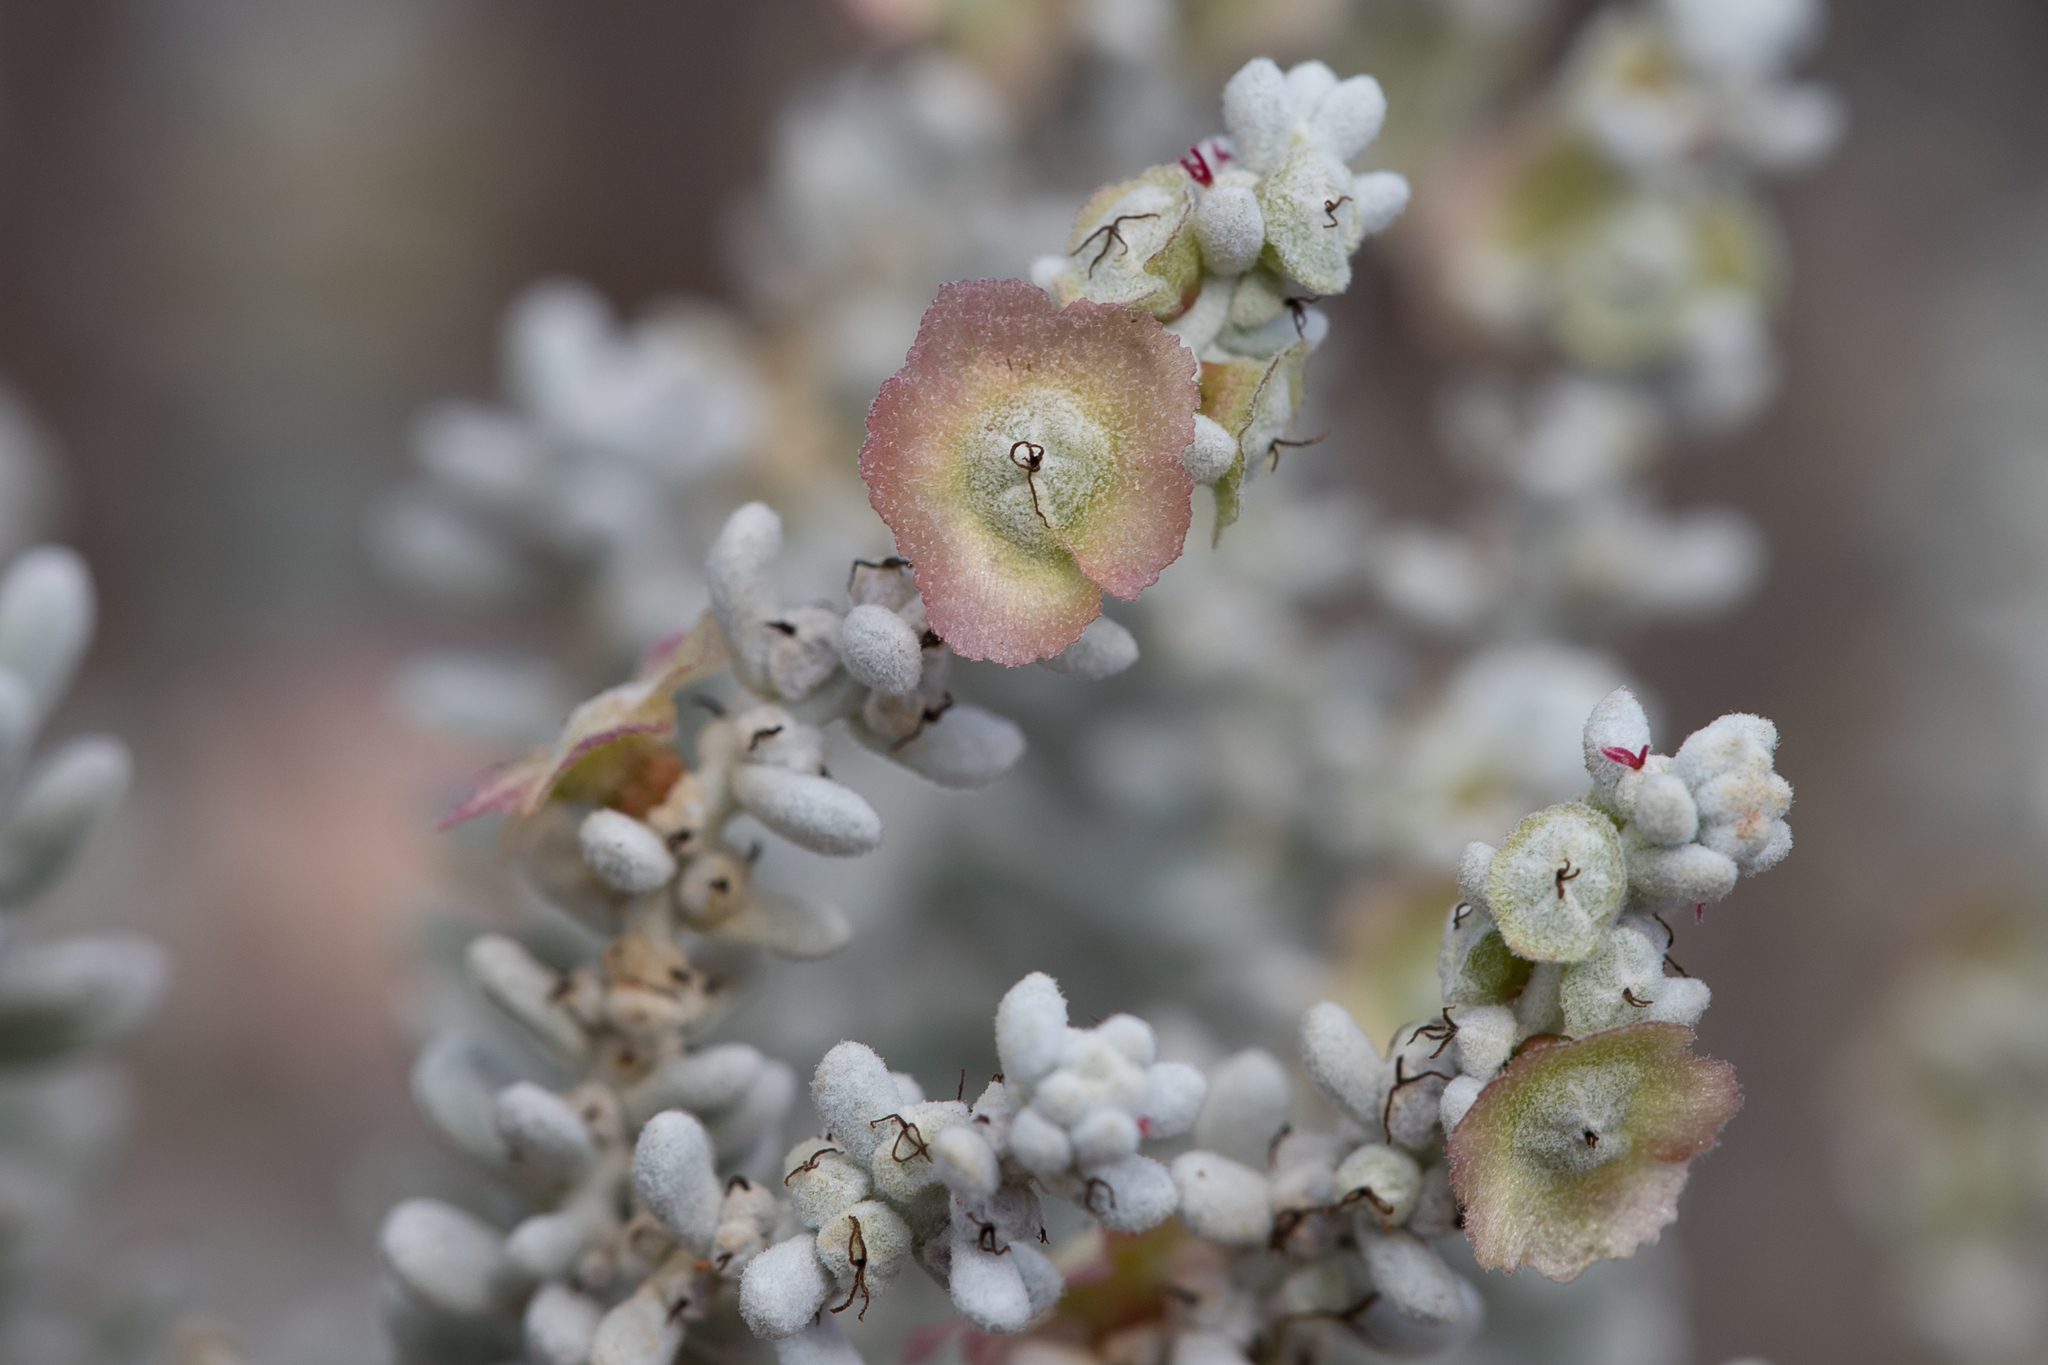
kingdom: Plantae
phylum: Tracheophyta
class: Magnoliopsida
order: Caryophyllales
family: Amaranthaceae
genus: Maireana
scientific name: Maireana sedifolia
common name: Hoary bluebush
